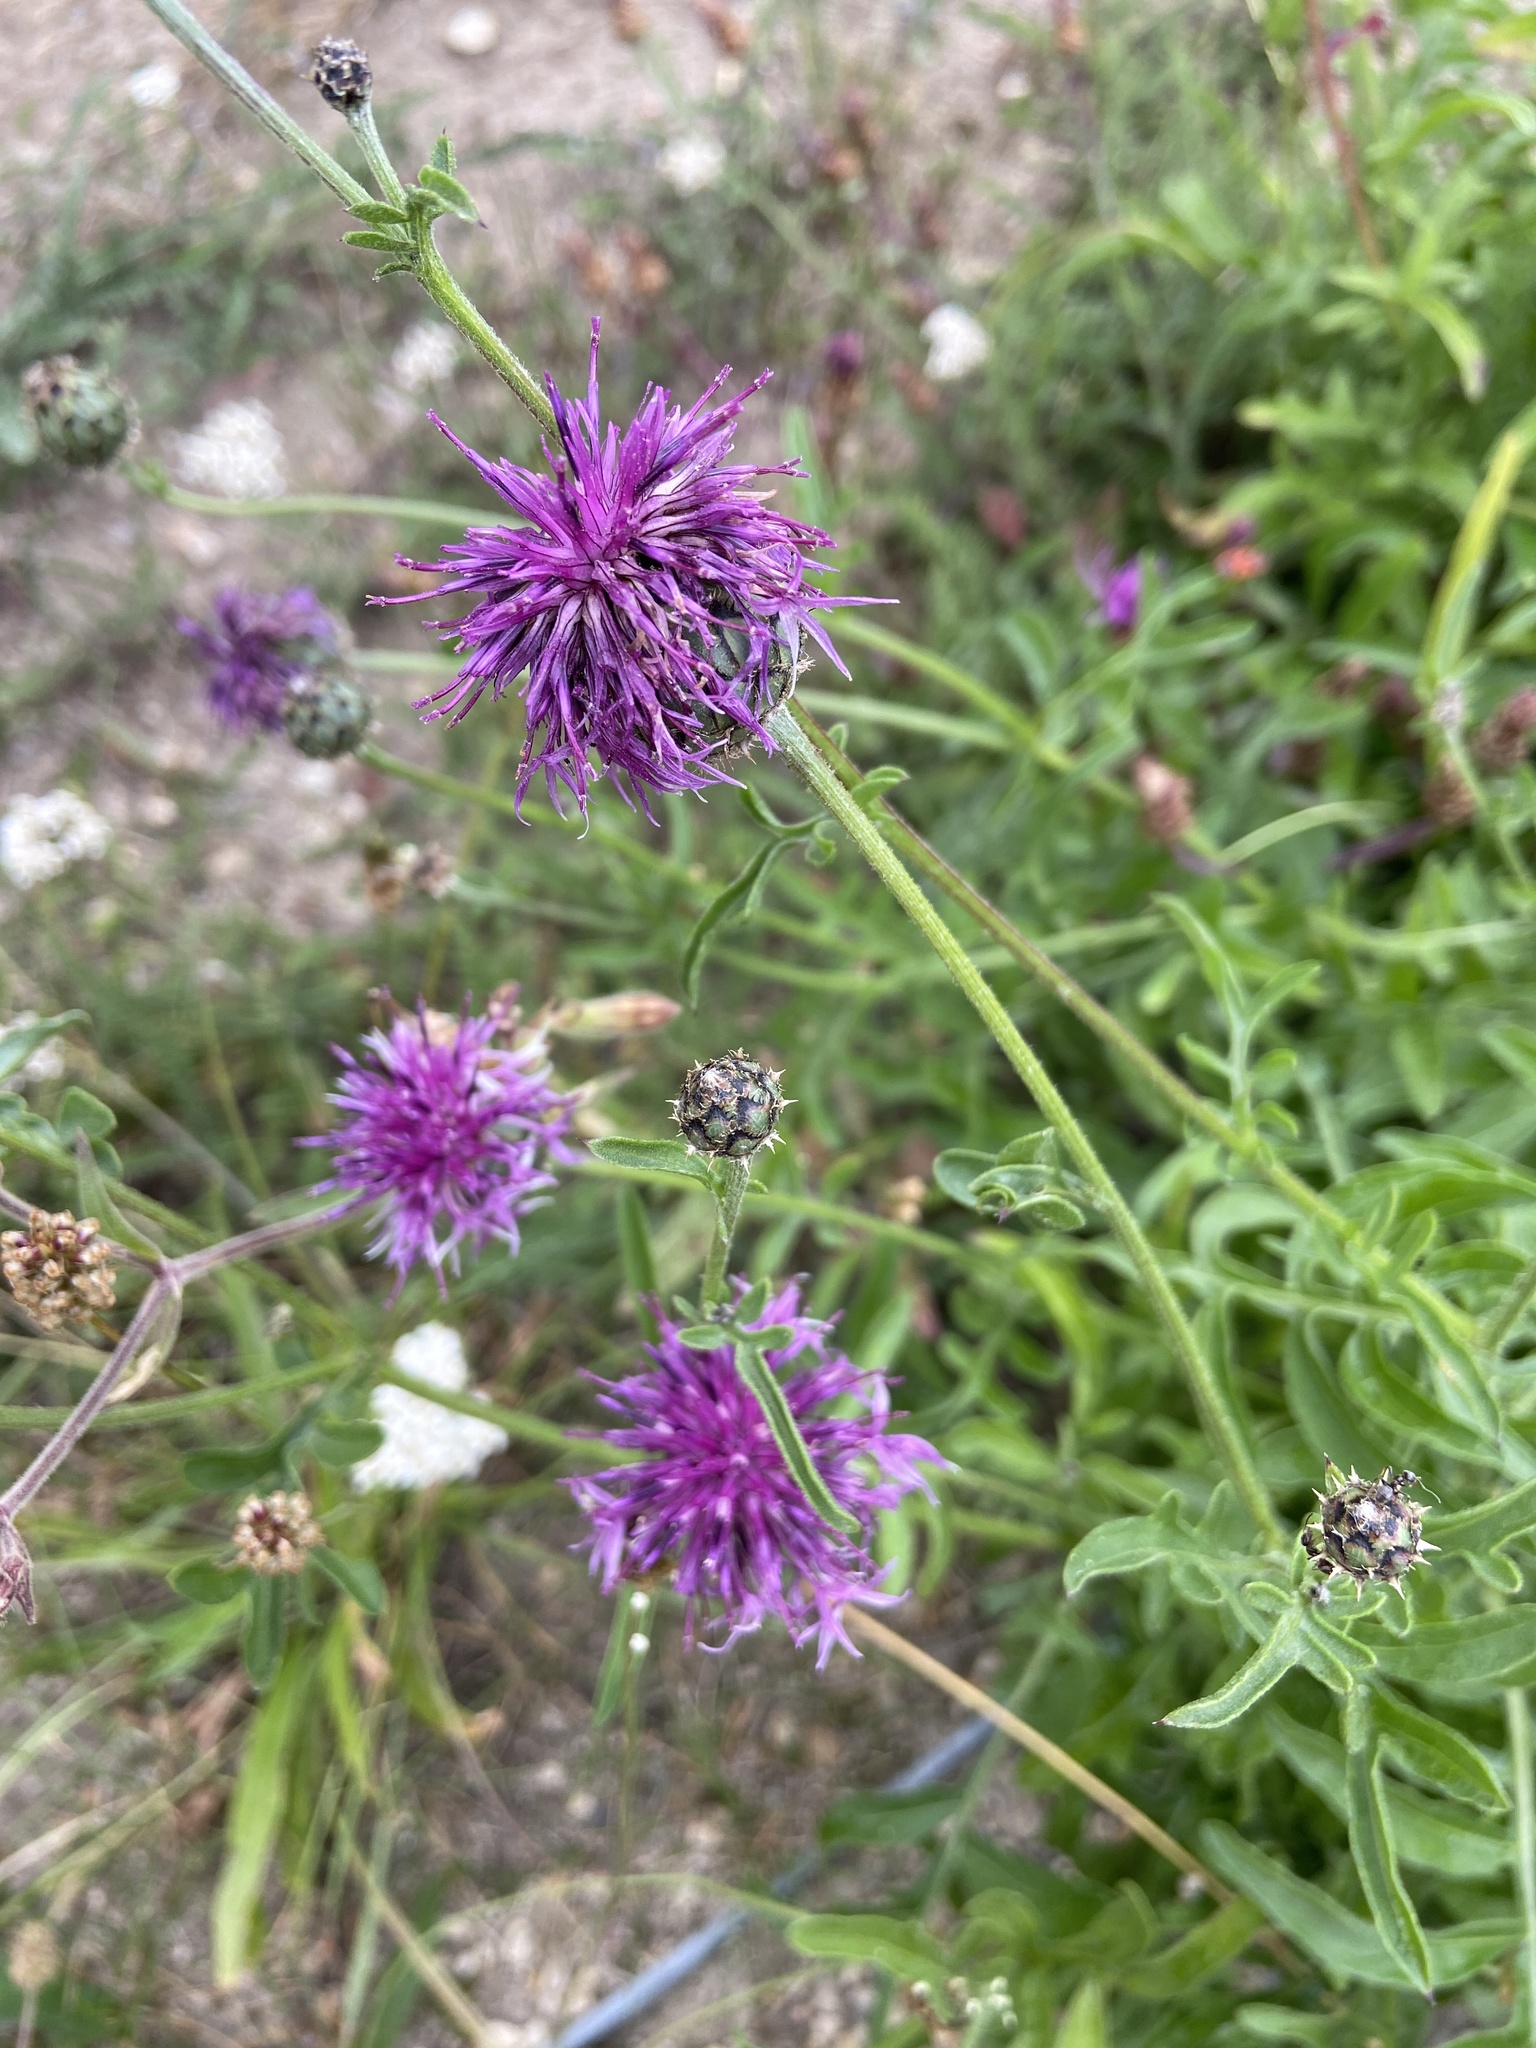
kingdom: Plantae
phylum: Tracheophyta
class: Magnoliopsida
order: Asterales
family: Asteraceae
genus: Centaurea
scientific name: Centaurea scabiosa
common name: Greater knapweed
